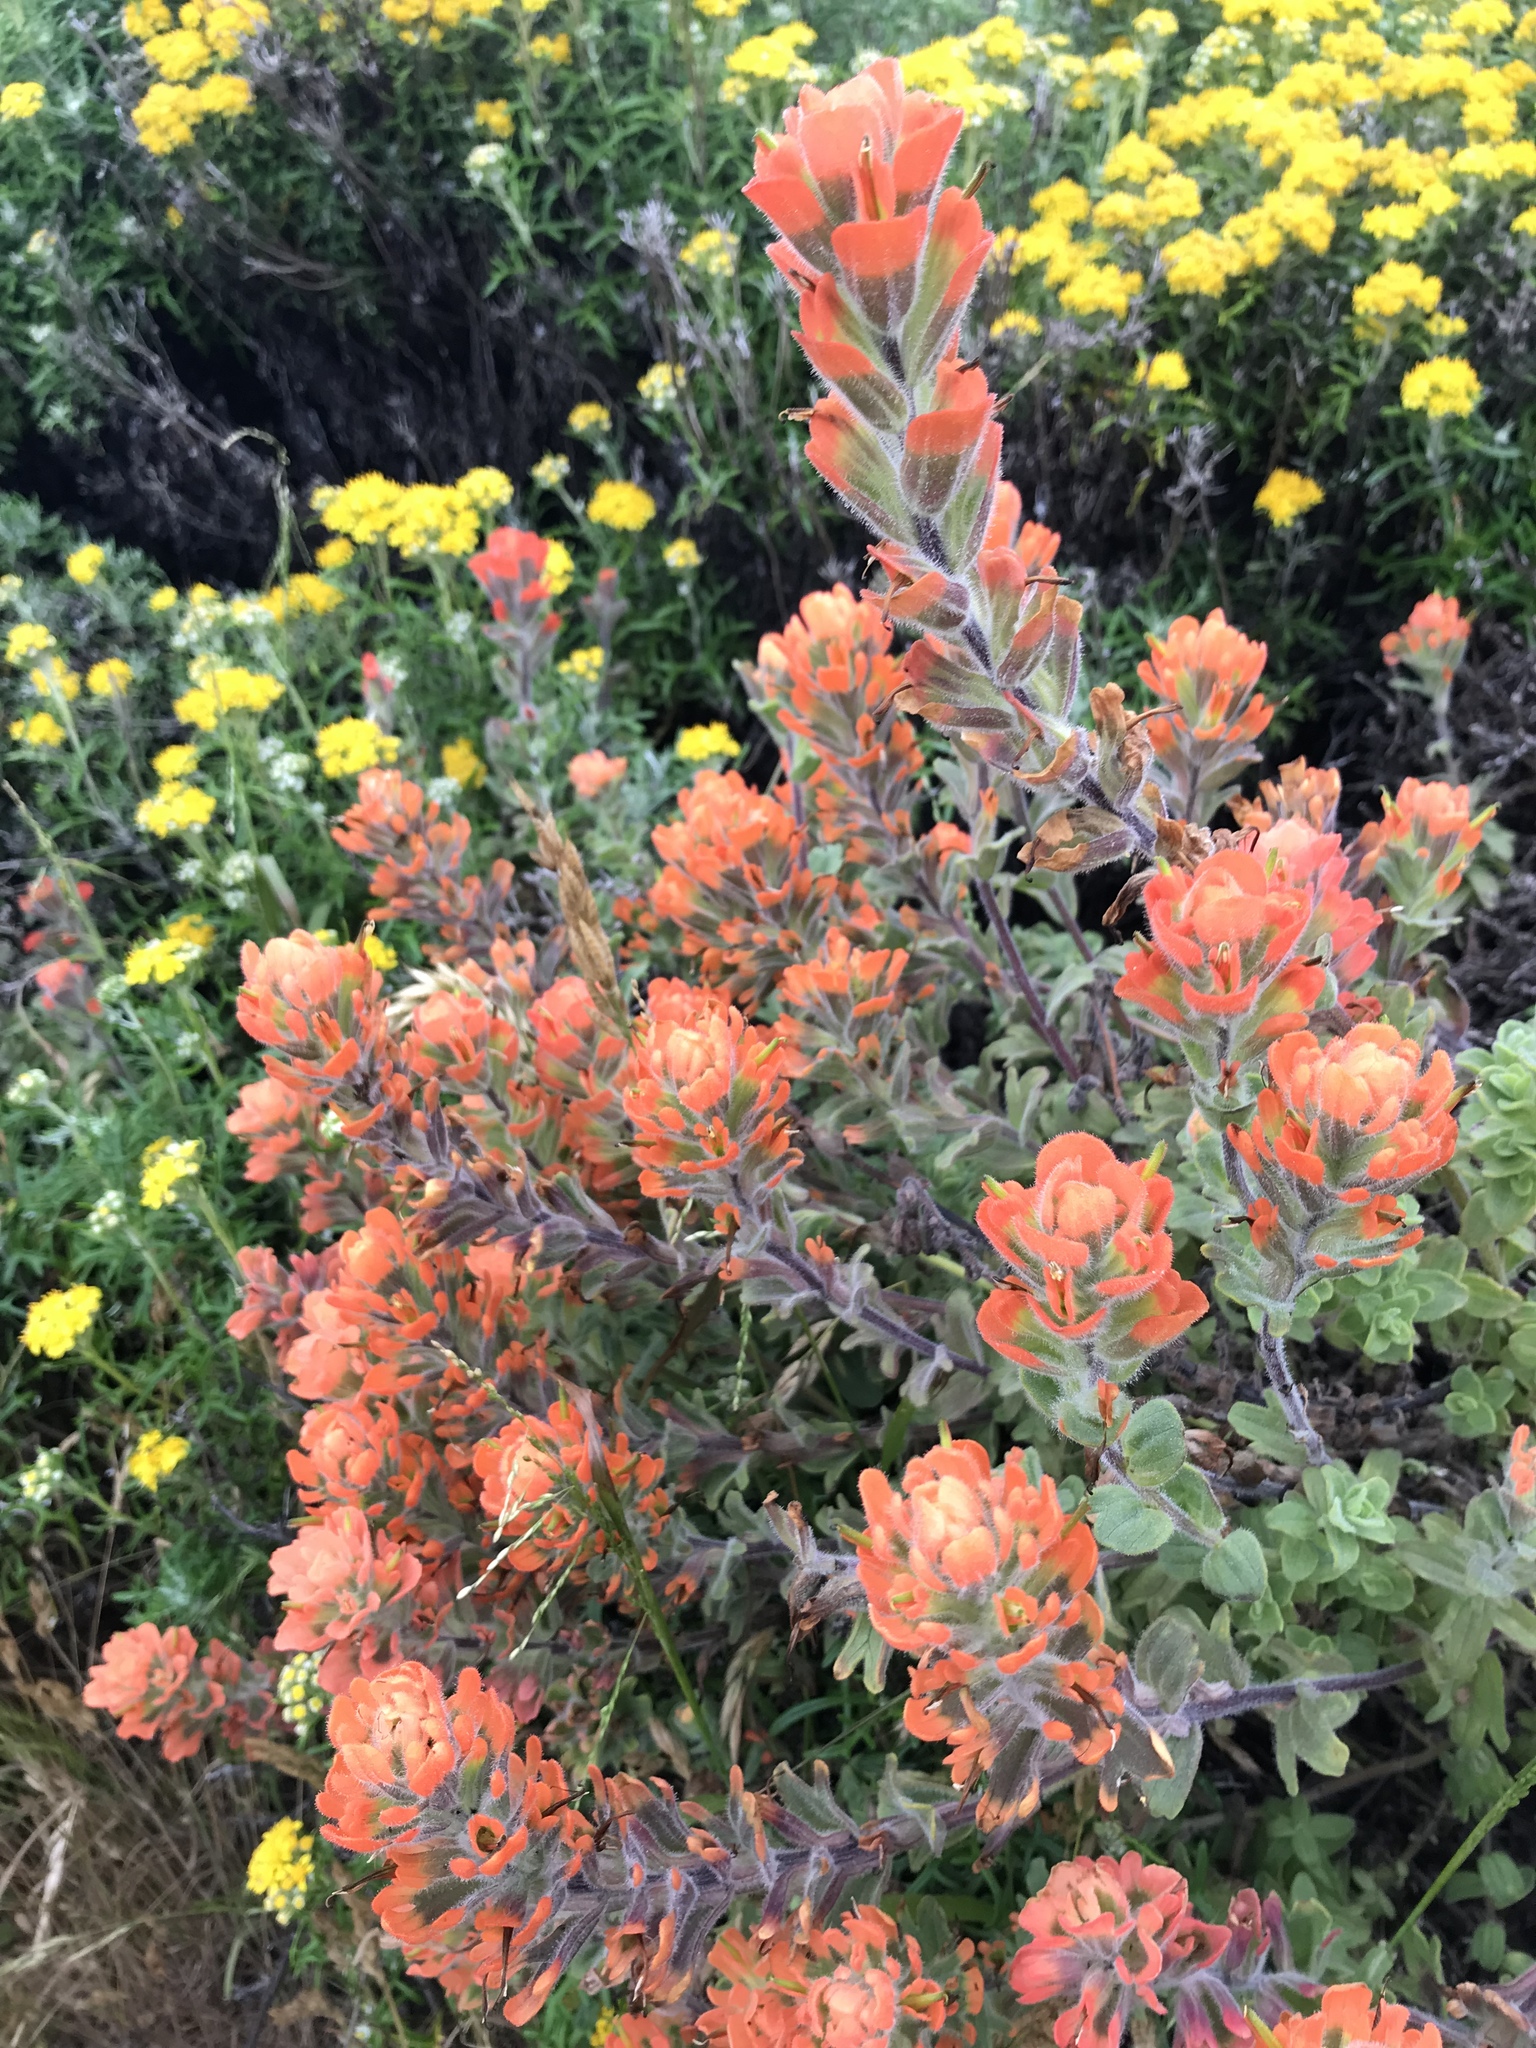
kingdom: Plantae
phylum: Tracheophyta
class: Magnoliopsida
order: Lamiales
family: Orobanchaceae
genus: Castilleja
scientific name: Castilleja latifolia
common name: Monterey indian paintbrush
